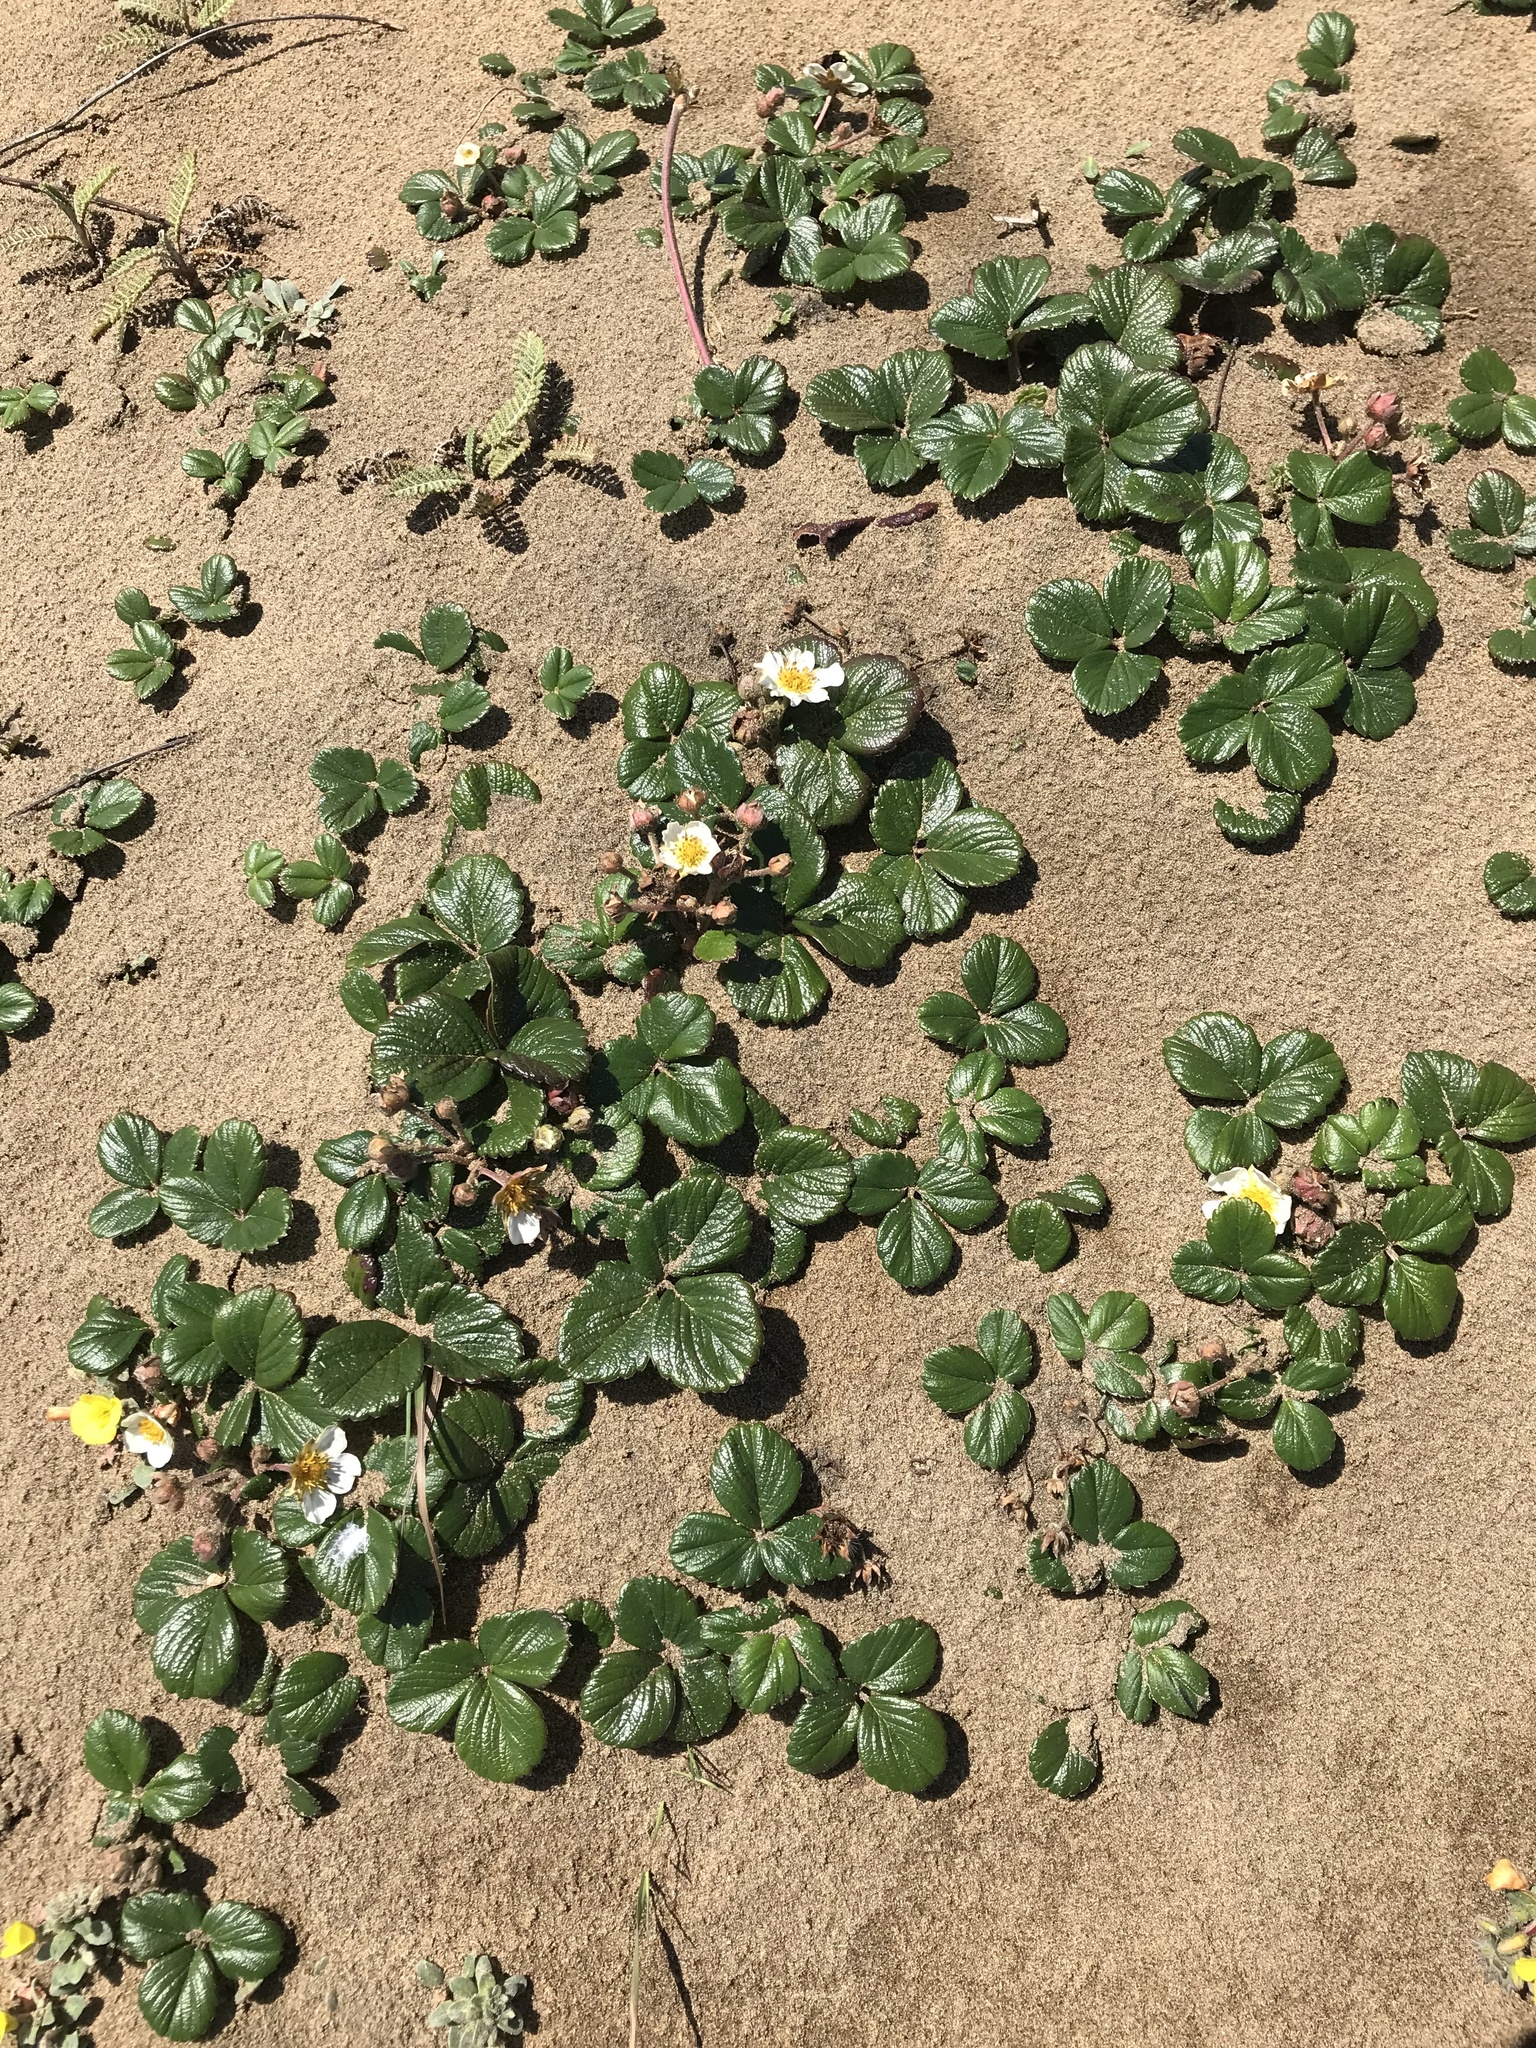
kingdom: Plantae
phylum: Tracheophyta
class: Magnoliopsida
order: Rosales
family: Rosaceae
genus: Fragaria
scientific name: Fragaria chiloensis
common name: Beach strawberry
